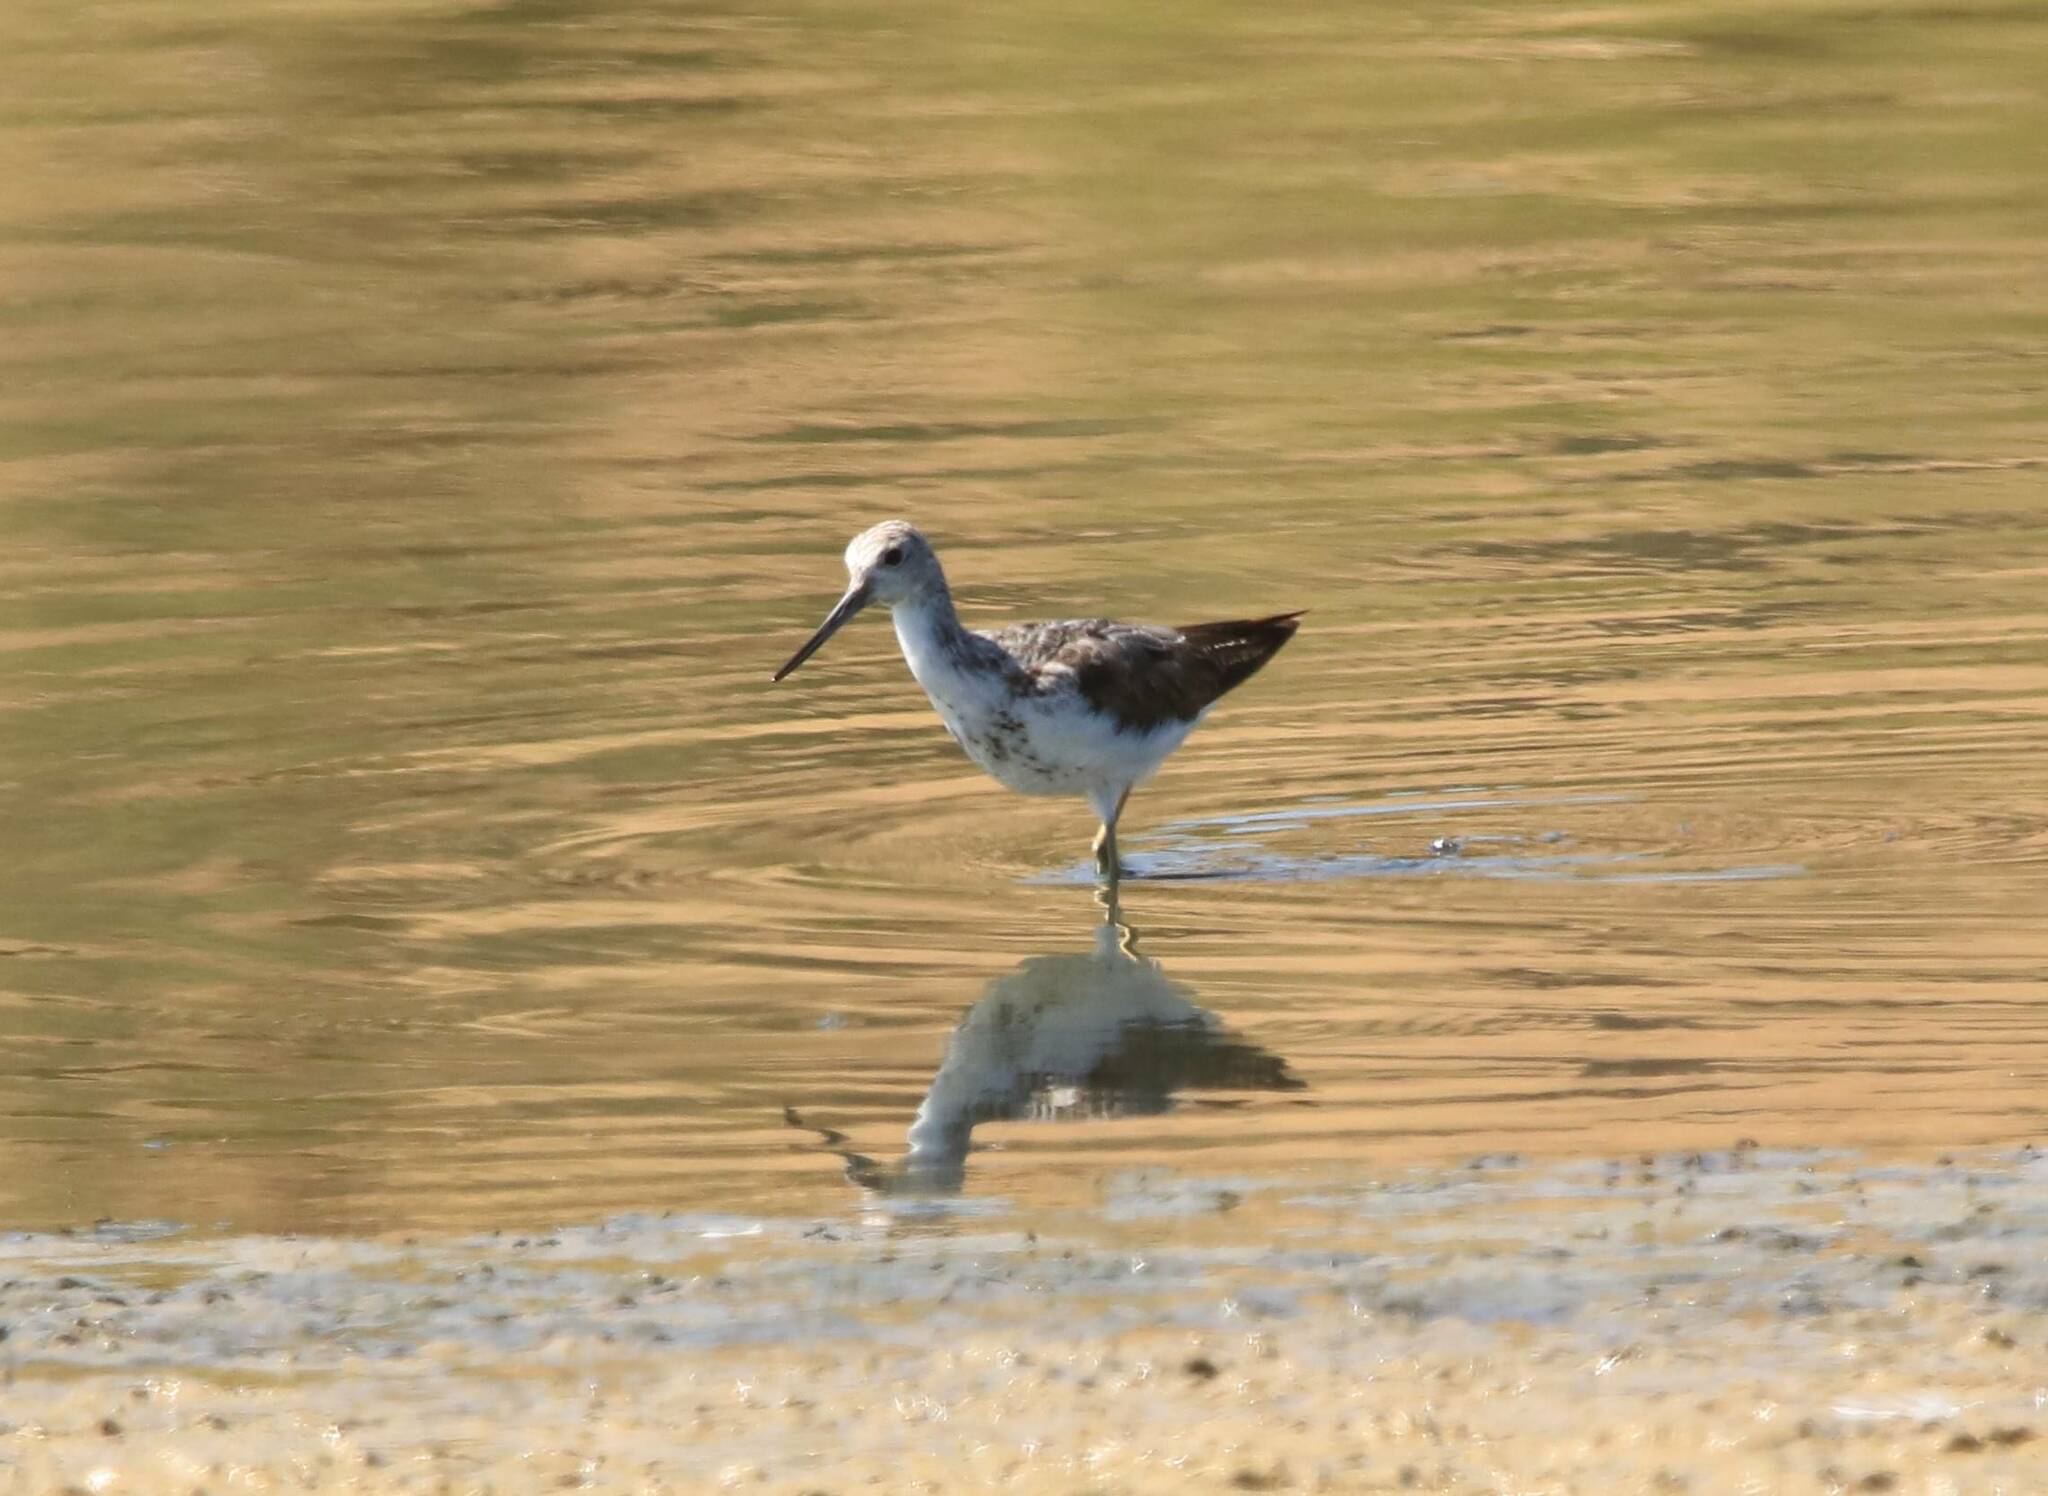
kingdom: Animalia
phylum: Chordata
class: Aves
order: Charadriiformes
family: Scolopacidae
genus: Tringa
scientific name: Tringa nebularia
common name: Common greenshank
